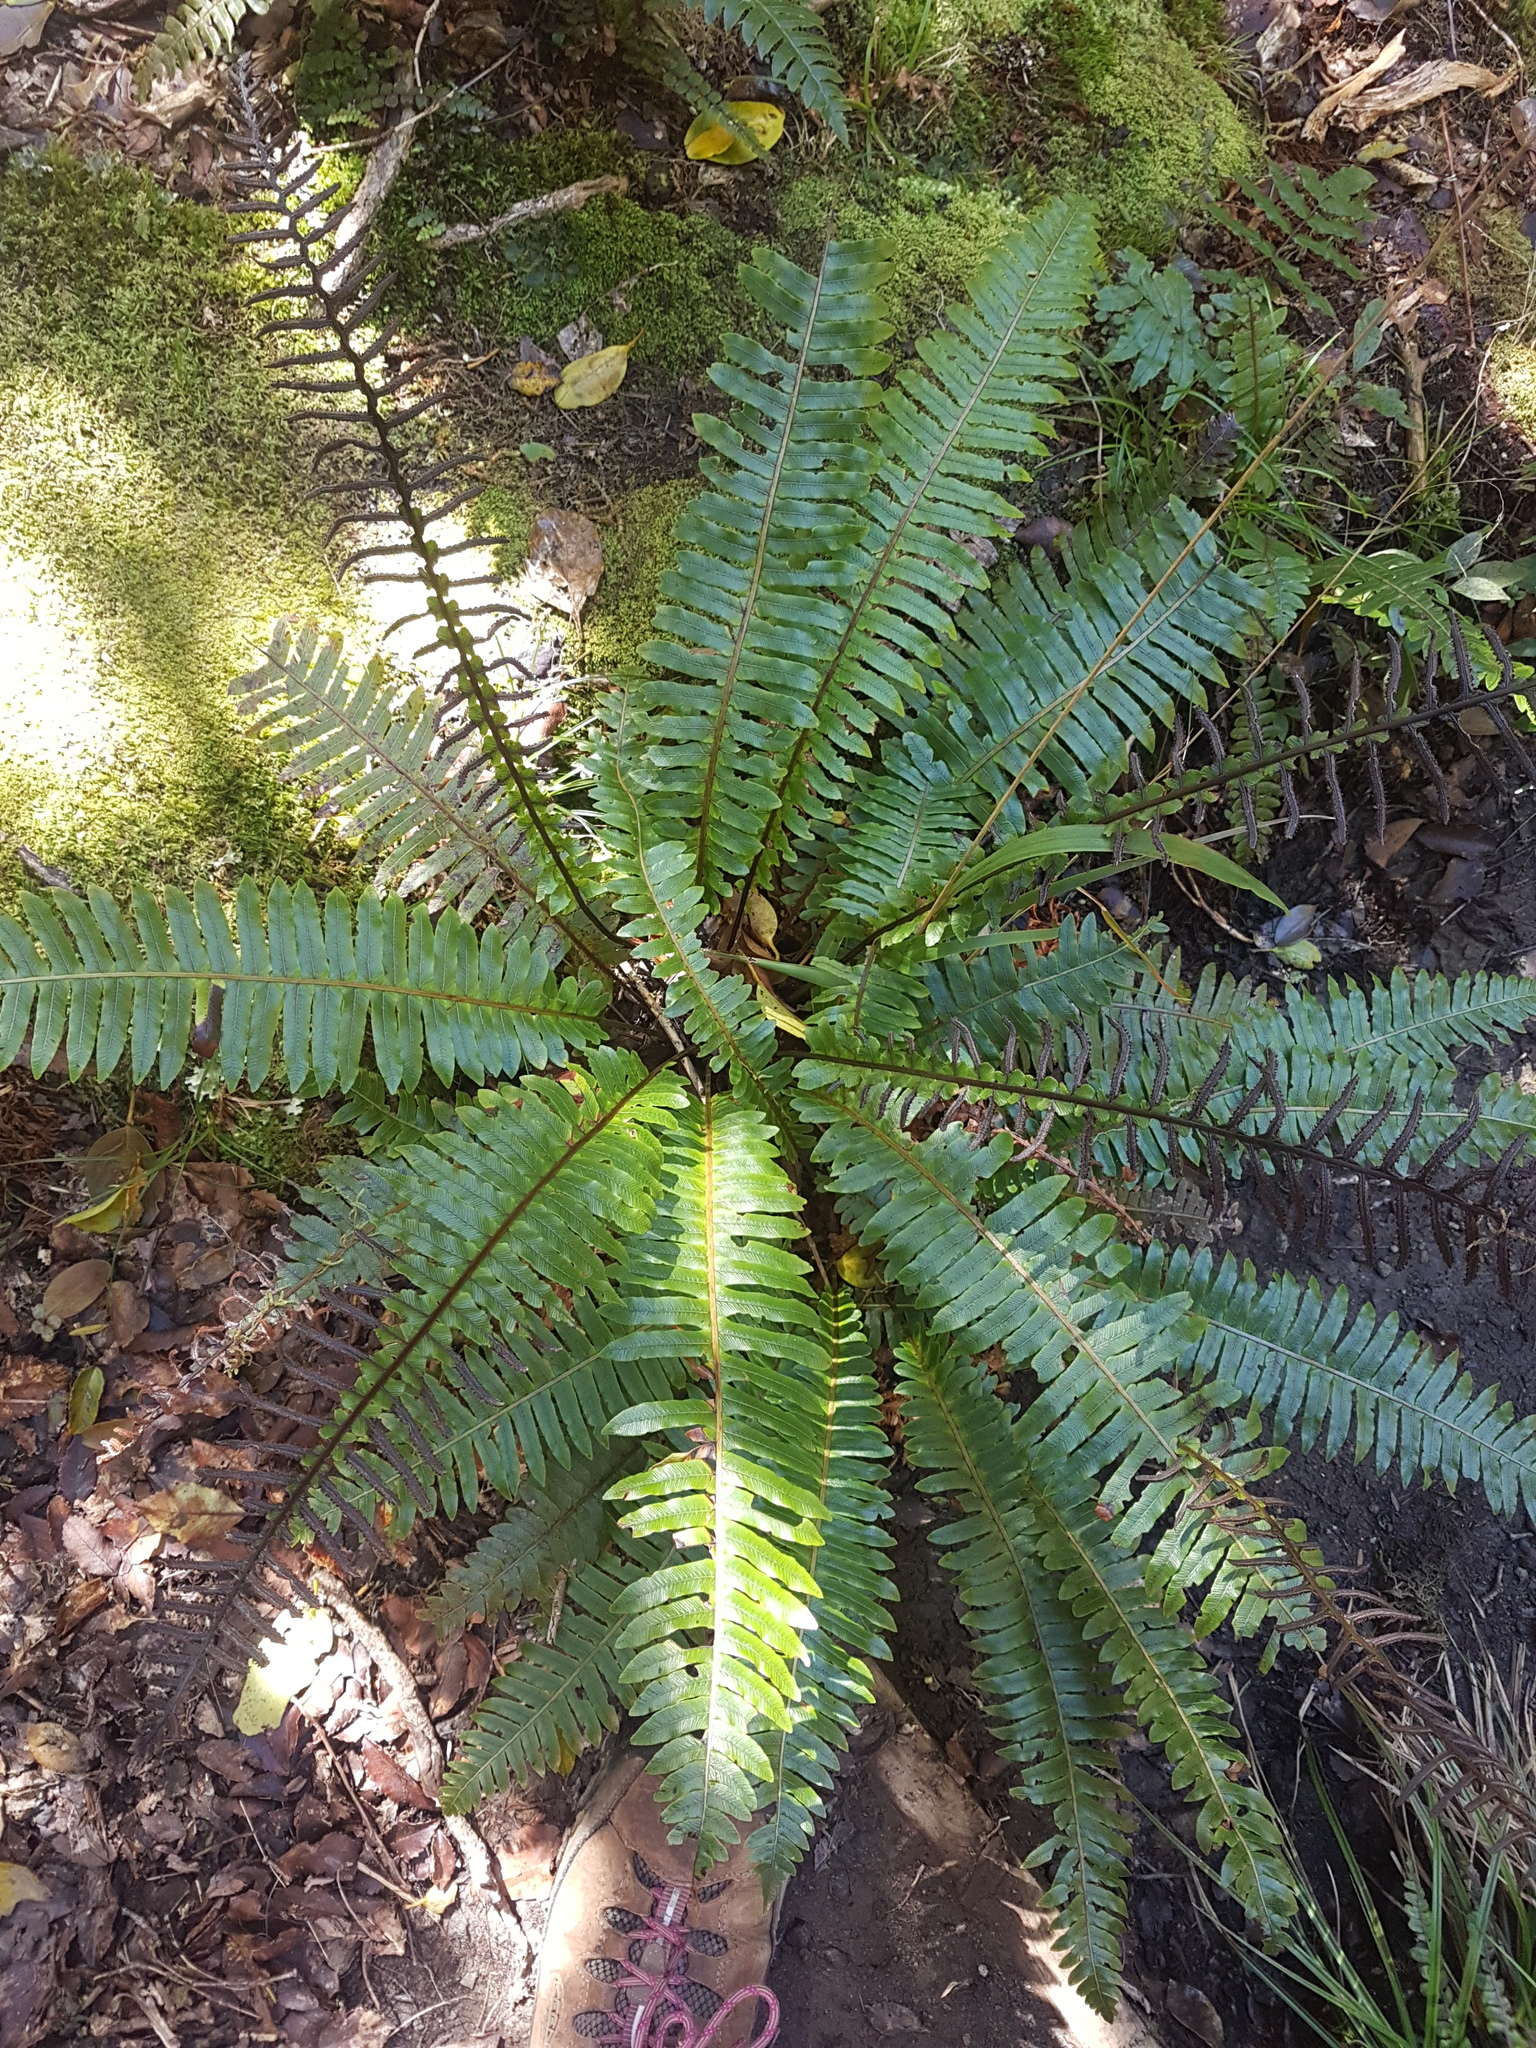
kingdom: Plantae
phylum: Tracheophyta
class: Polypodiopsida
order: Polypodiales
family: Blechnaceae
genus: Lomaria
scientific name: Lomaria discolor
